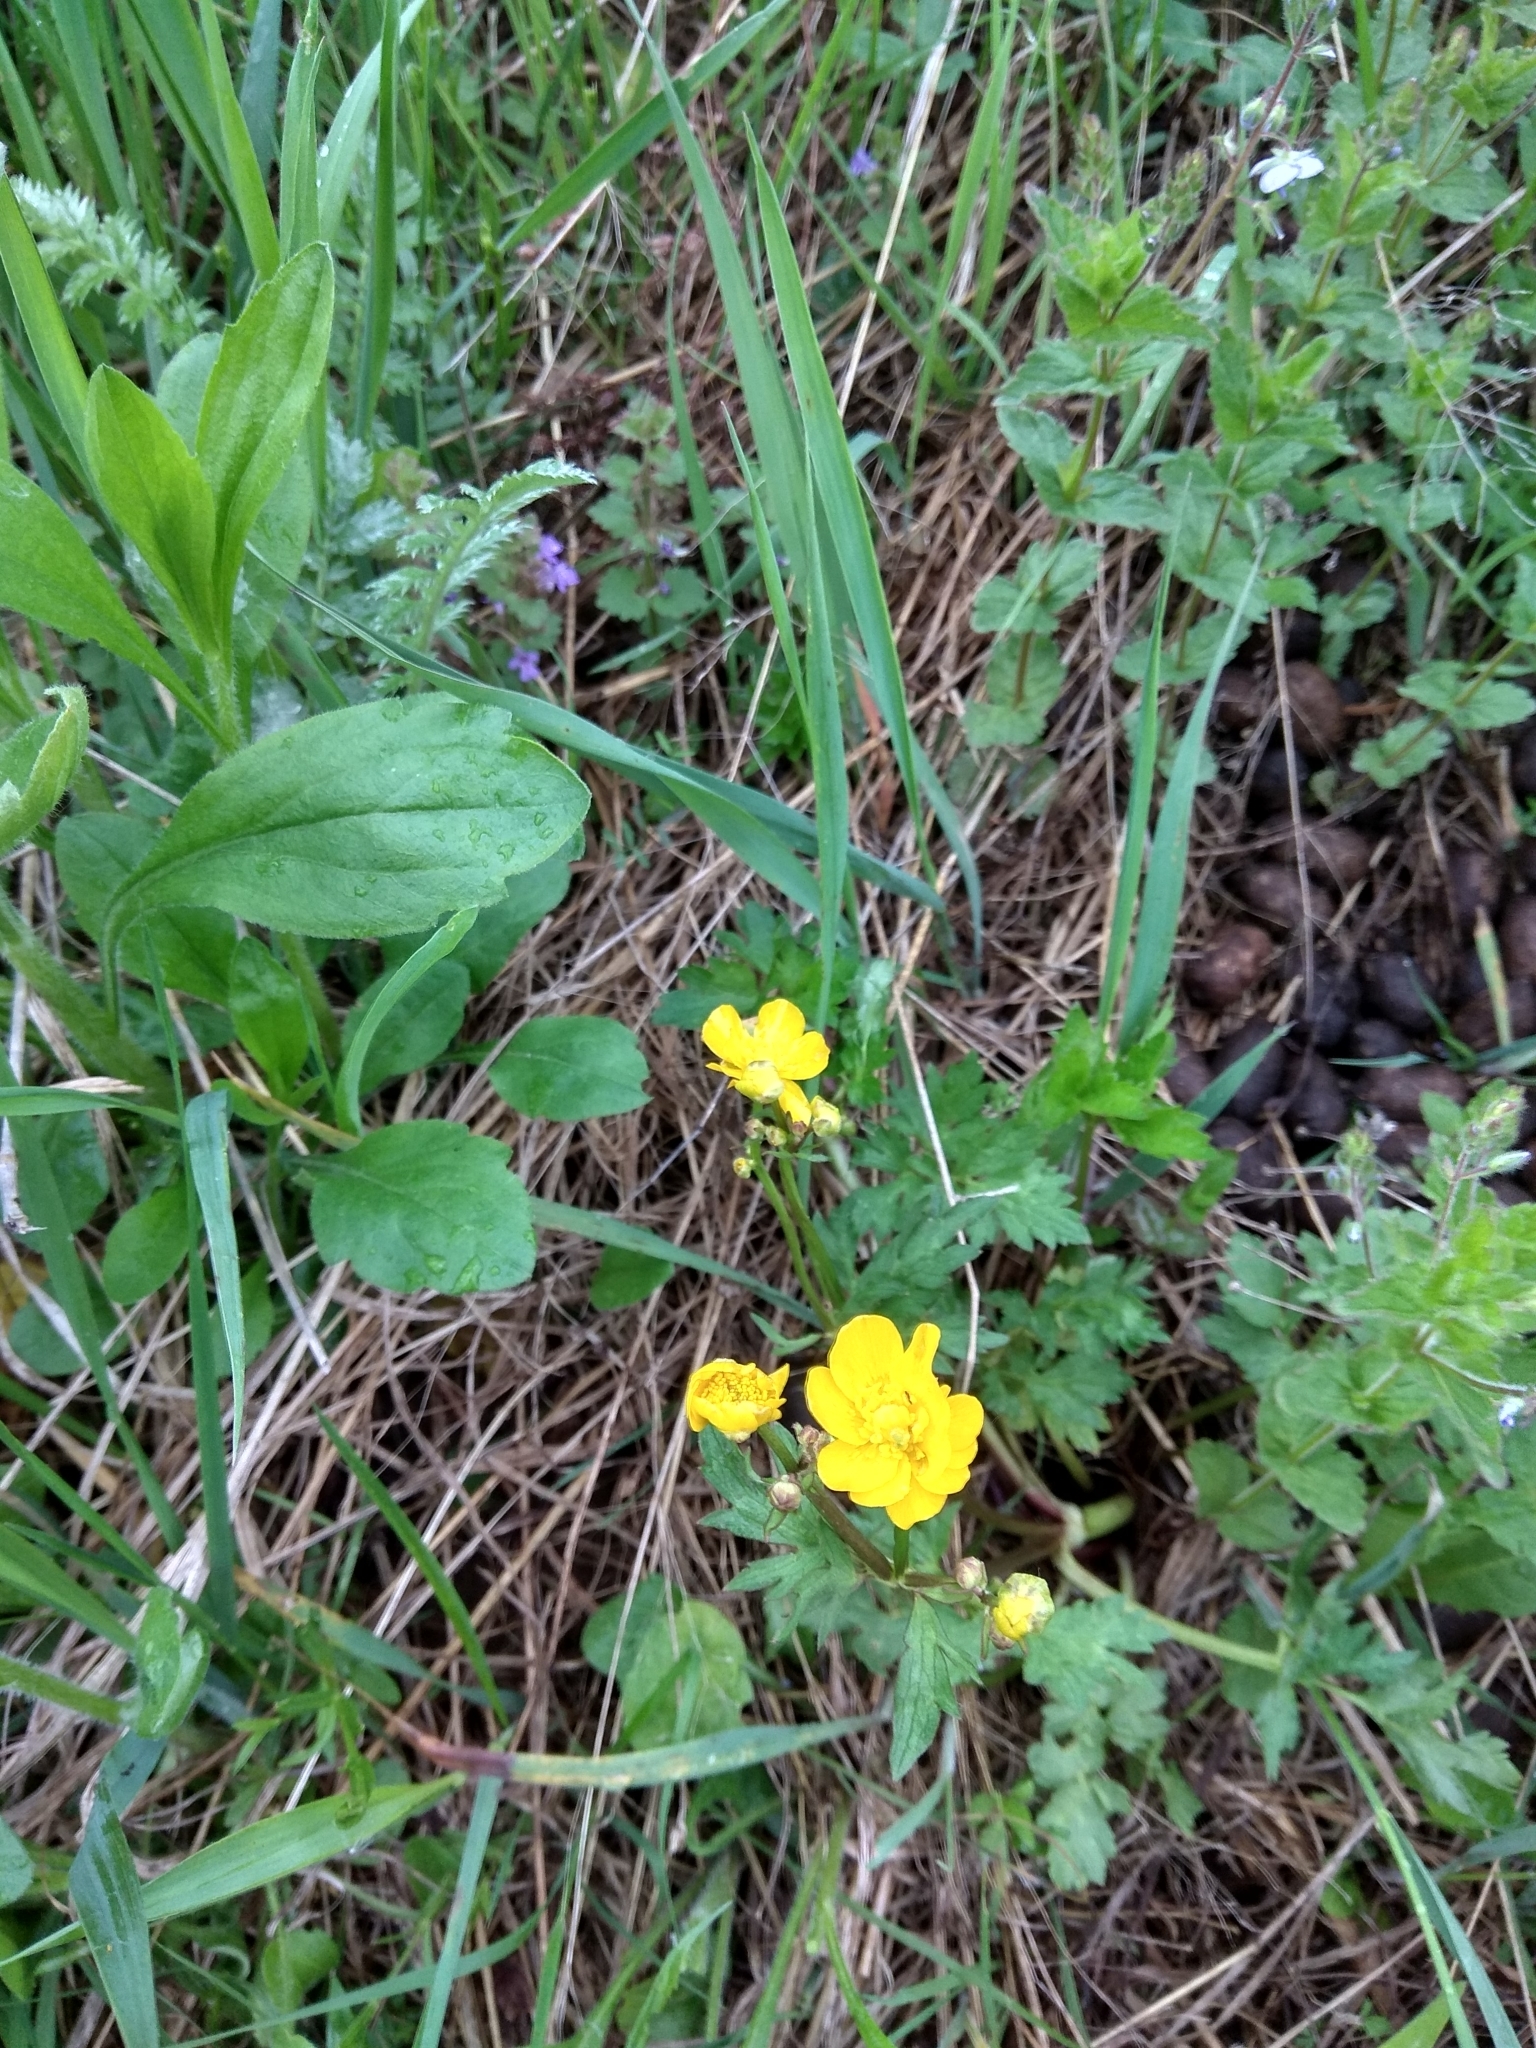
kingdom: Plantae
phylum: Tracheophyta
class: Magnoliopsida
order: Ranunculales
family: Ranunculaceae
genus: Ranunculus
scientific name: Ranunculus repens
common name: Creeping buttercup
